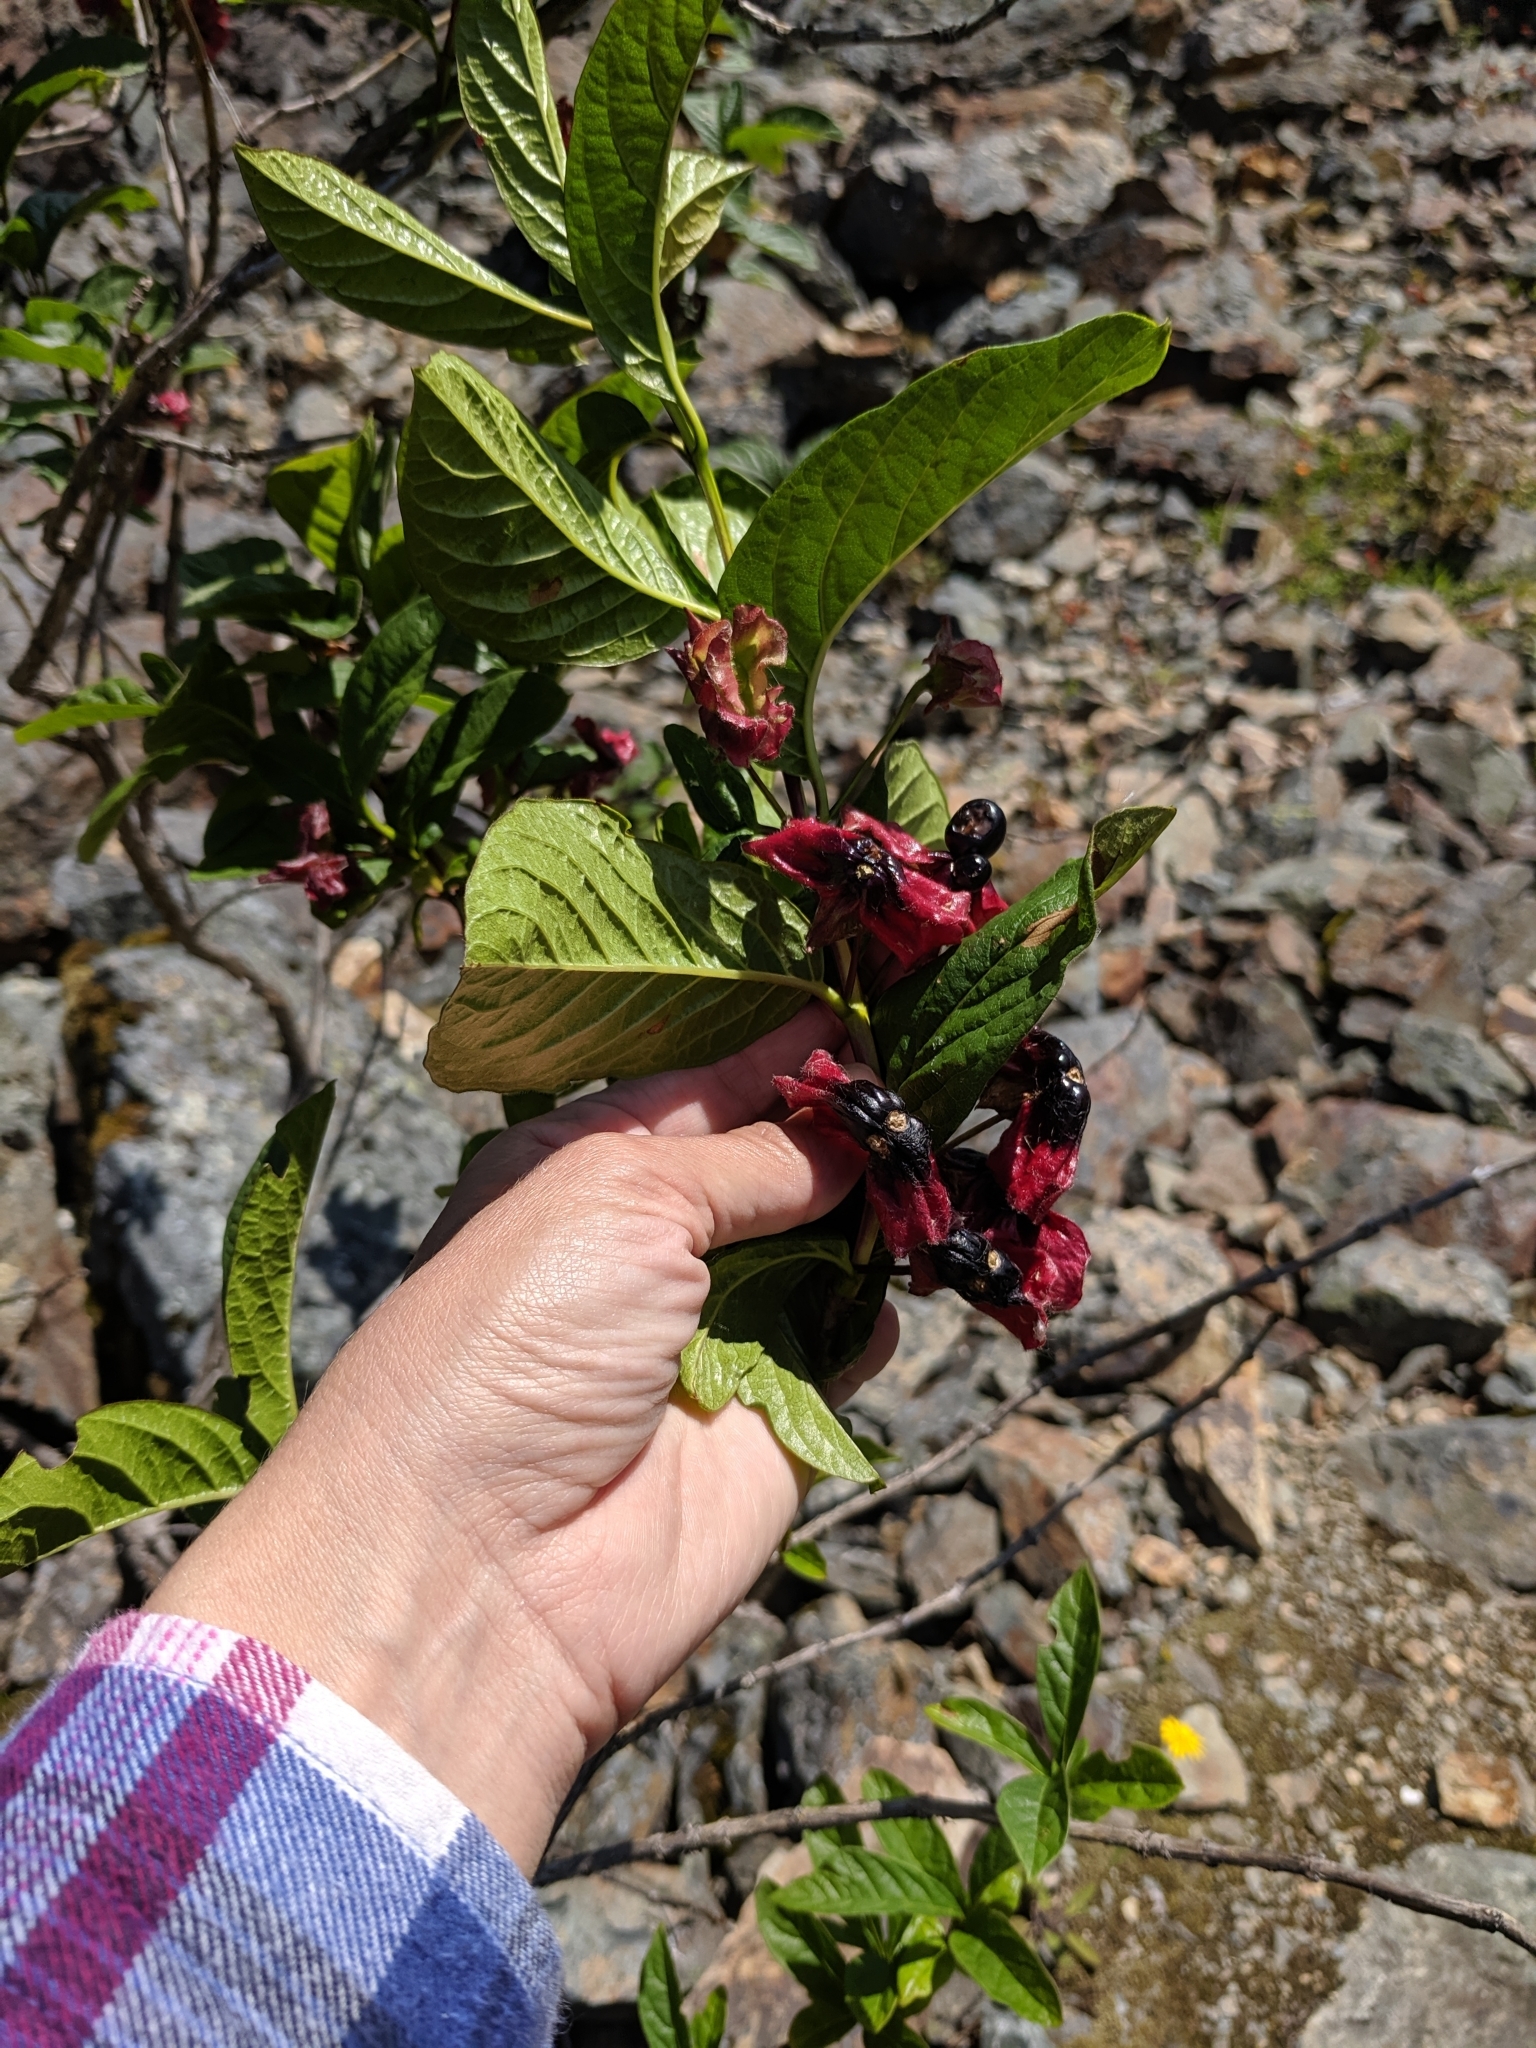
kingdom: Plantae
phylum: Tracheophyta
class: Magnoliopsida
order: Dipsacales
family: Caprifoliaceae
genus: Lonicera
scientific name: Lonicera involucrata
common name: Californian honeysuckle
